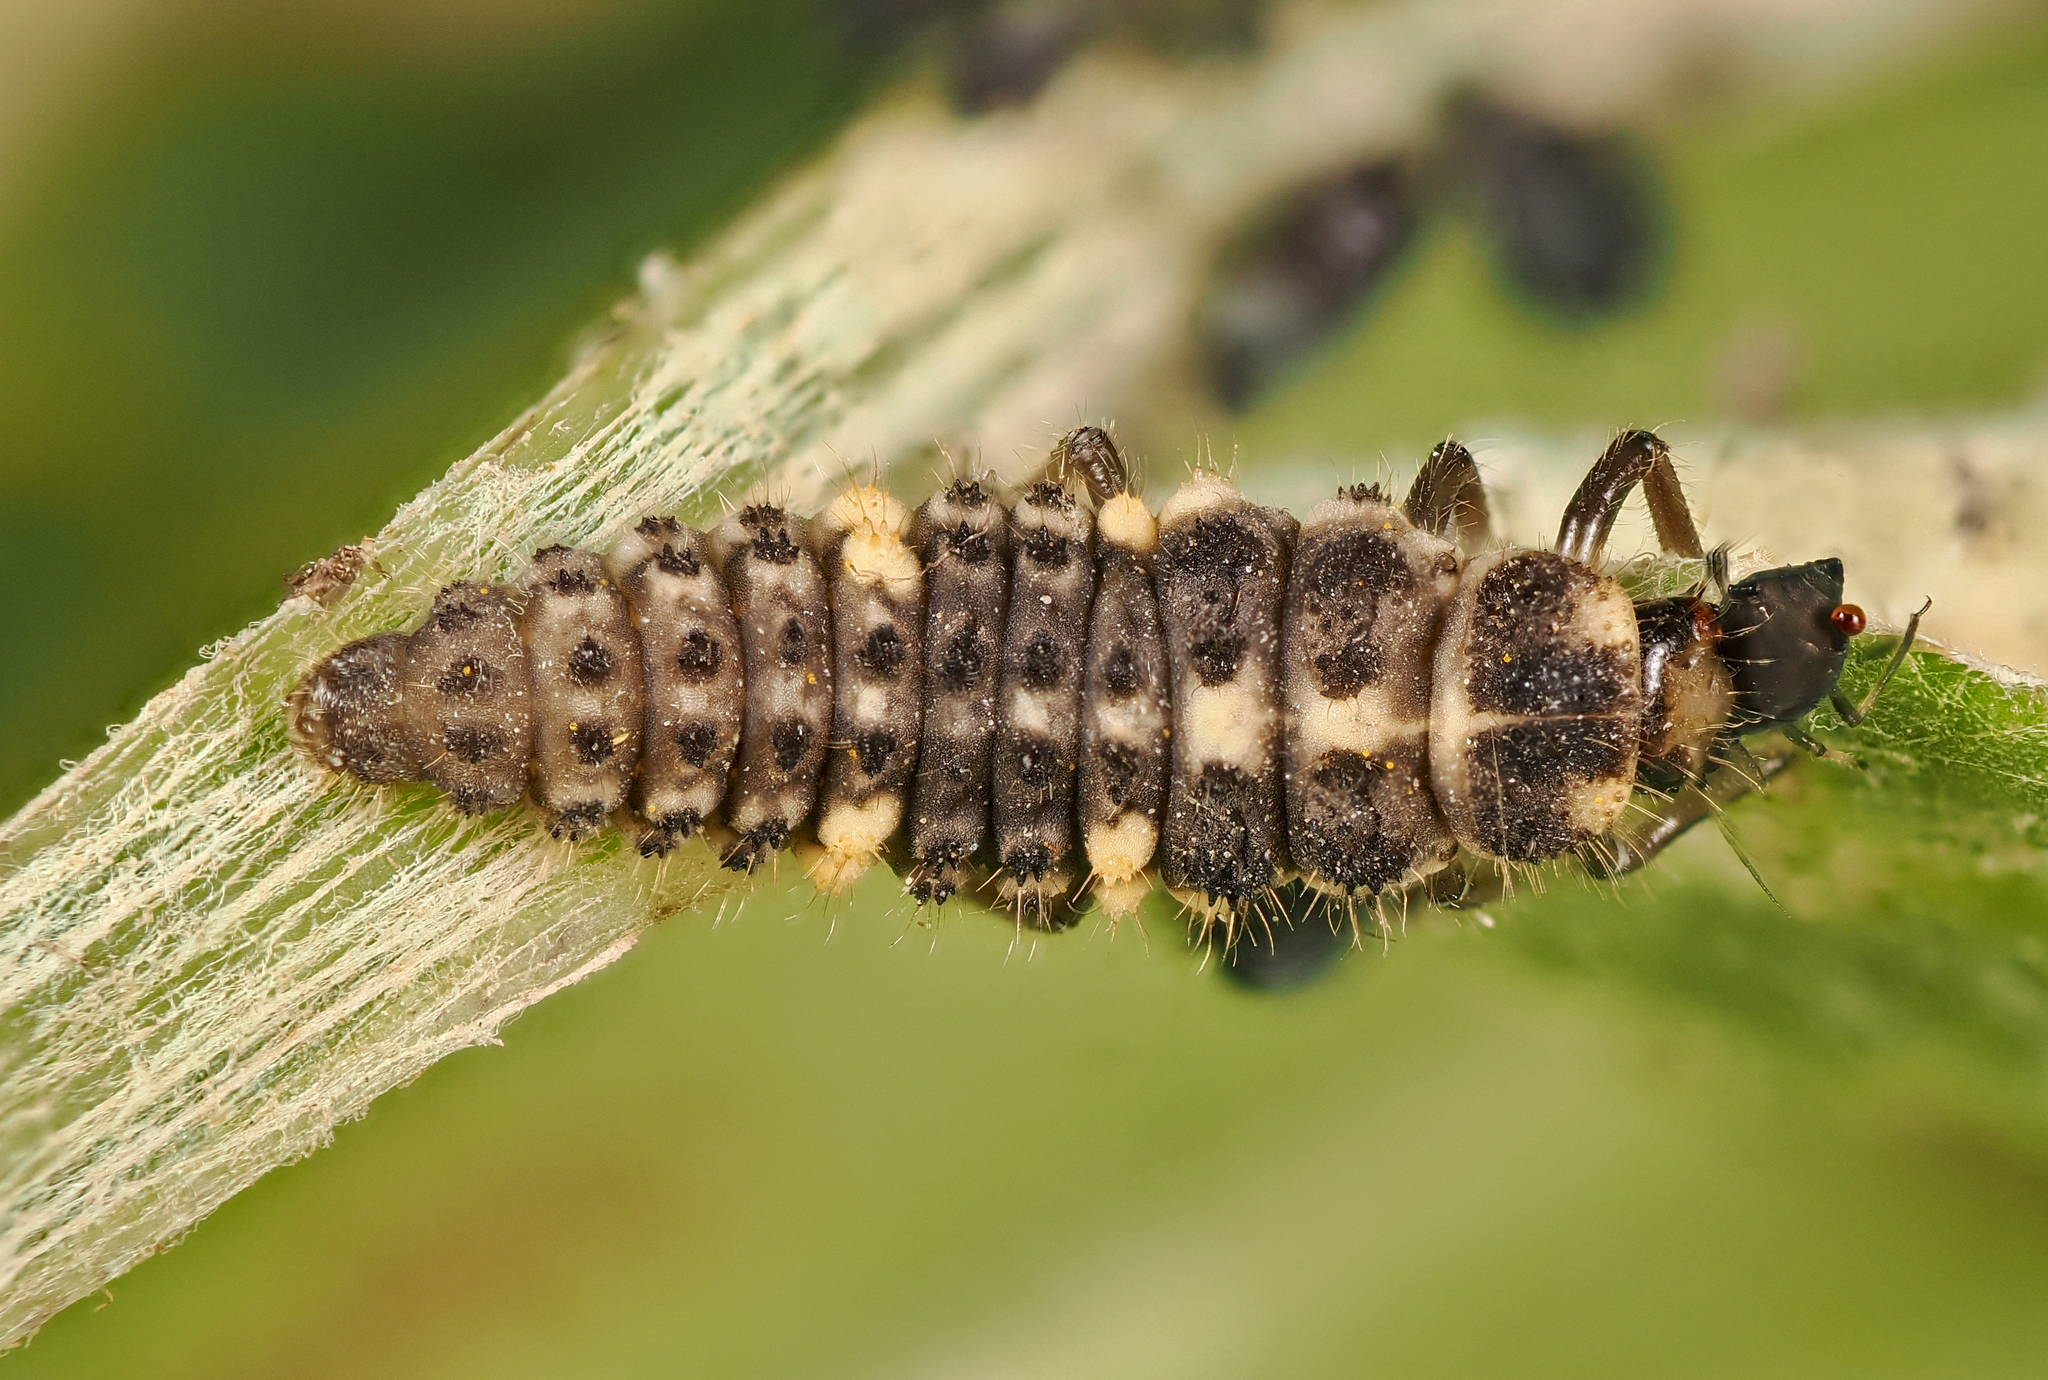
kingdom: Animalia
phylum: Arthropoda
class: Insecta
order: Coleoptera
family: Coccinellidae
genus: Ceratomegilla
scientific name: Ceratomegilla notata
